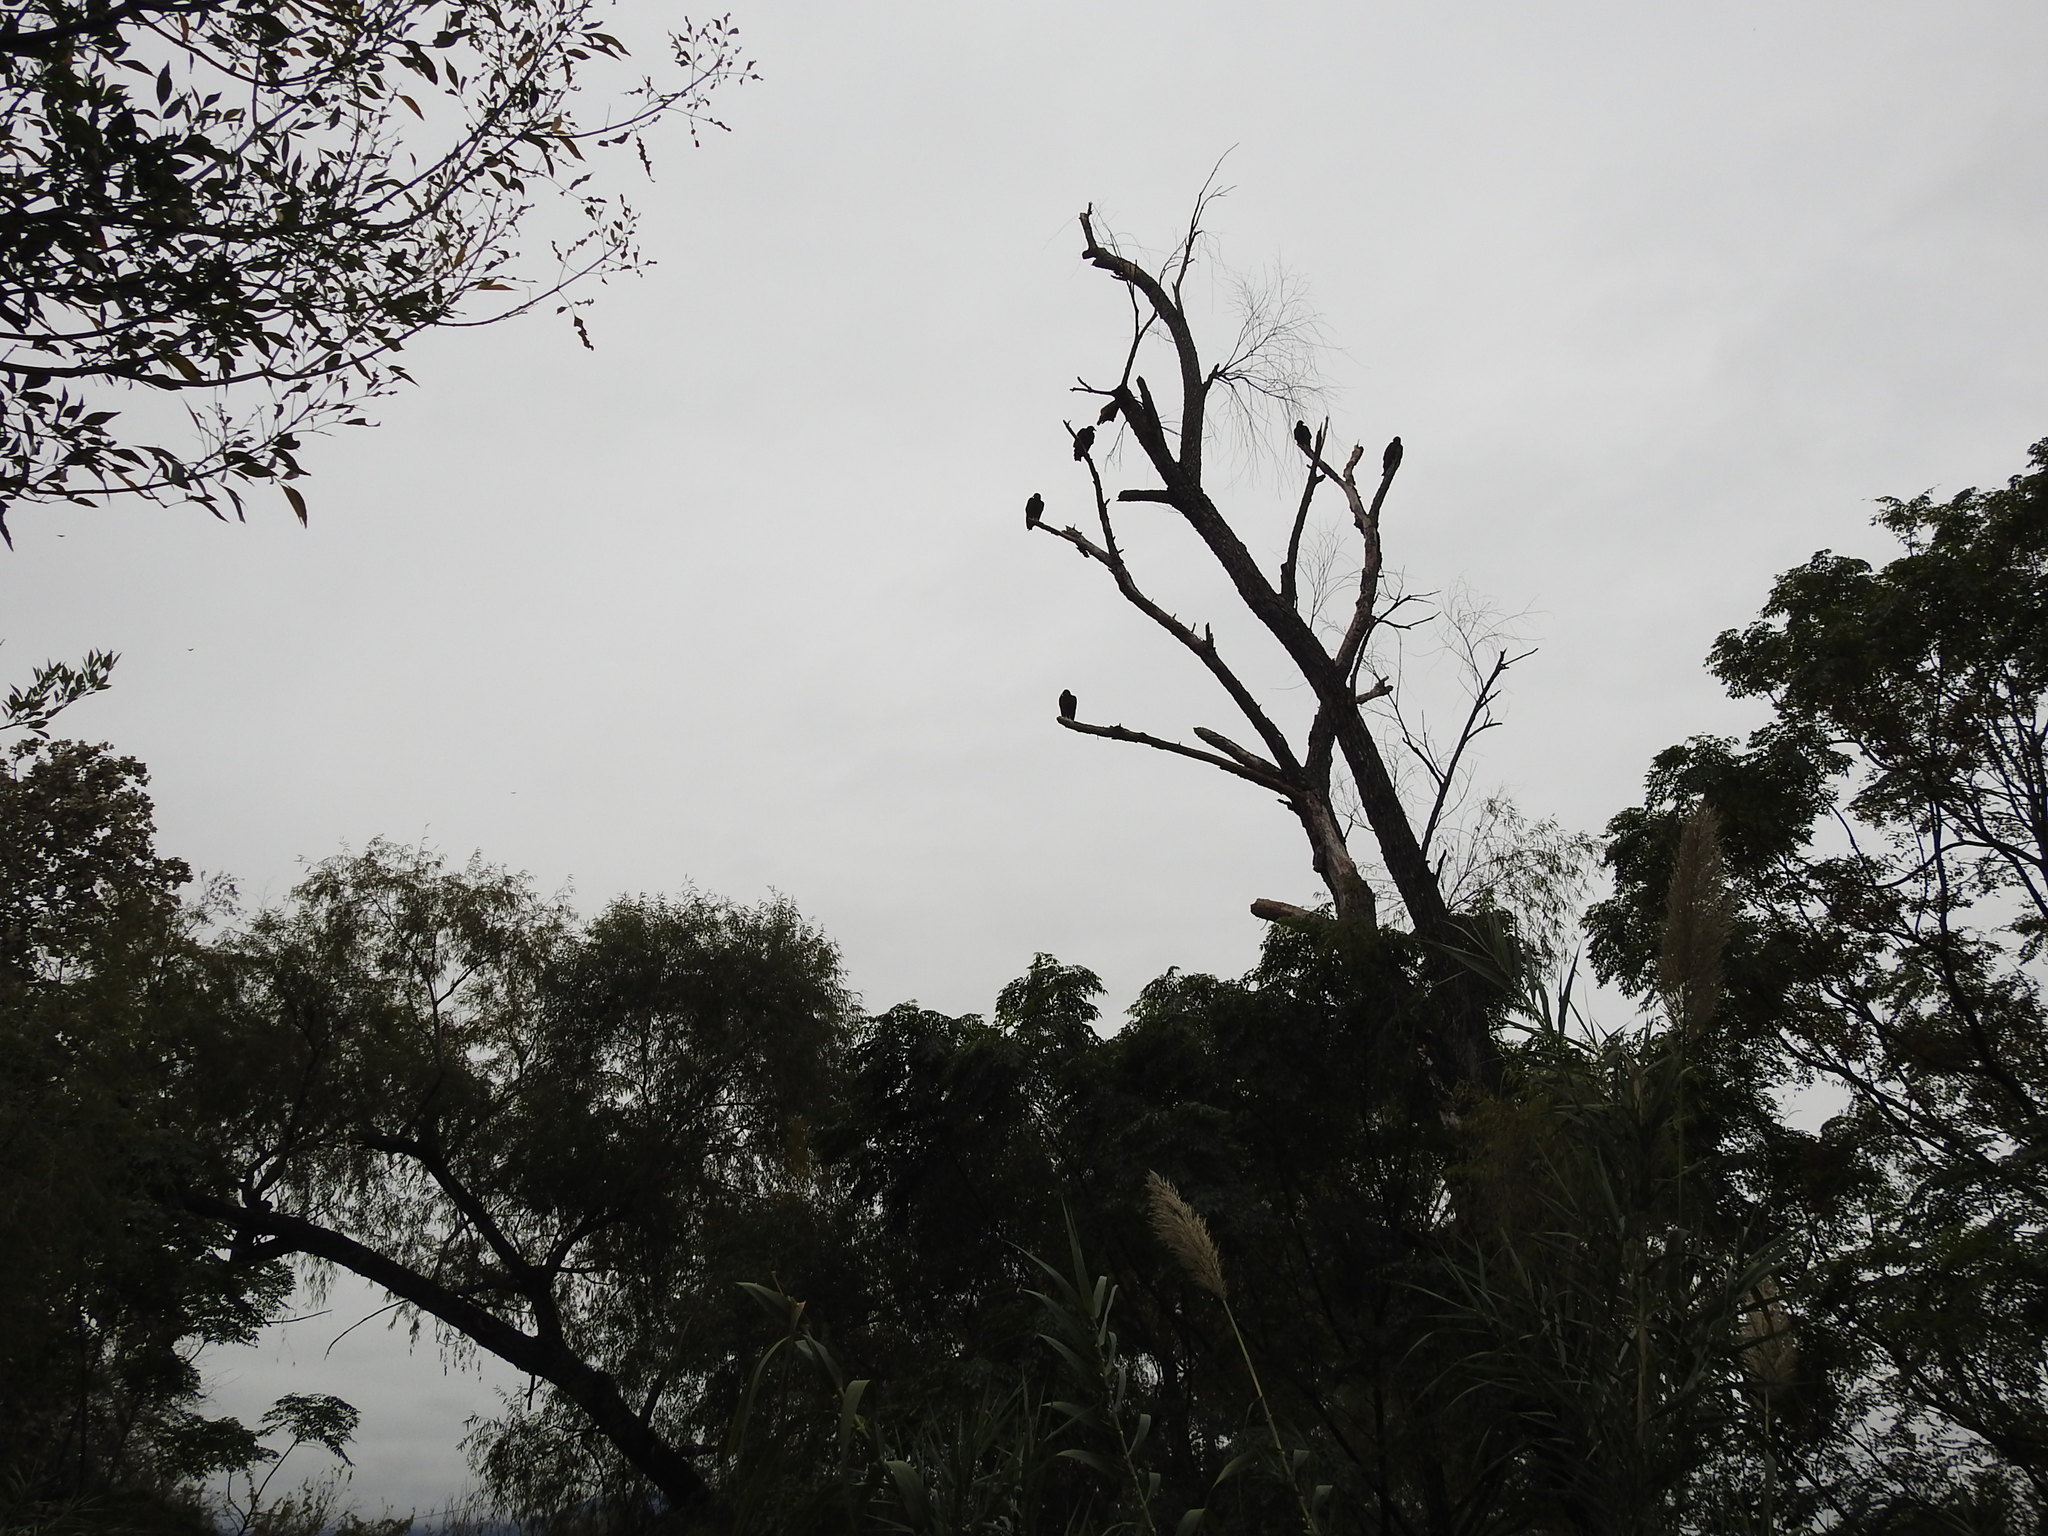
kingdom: Animalia
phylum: Chordata
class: Aves
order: Accipitriformes
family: Cathartidae
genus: Coragyps
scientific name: Coragyps atratus
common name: Black vulture
